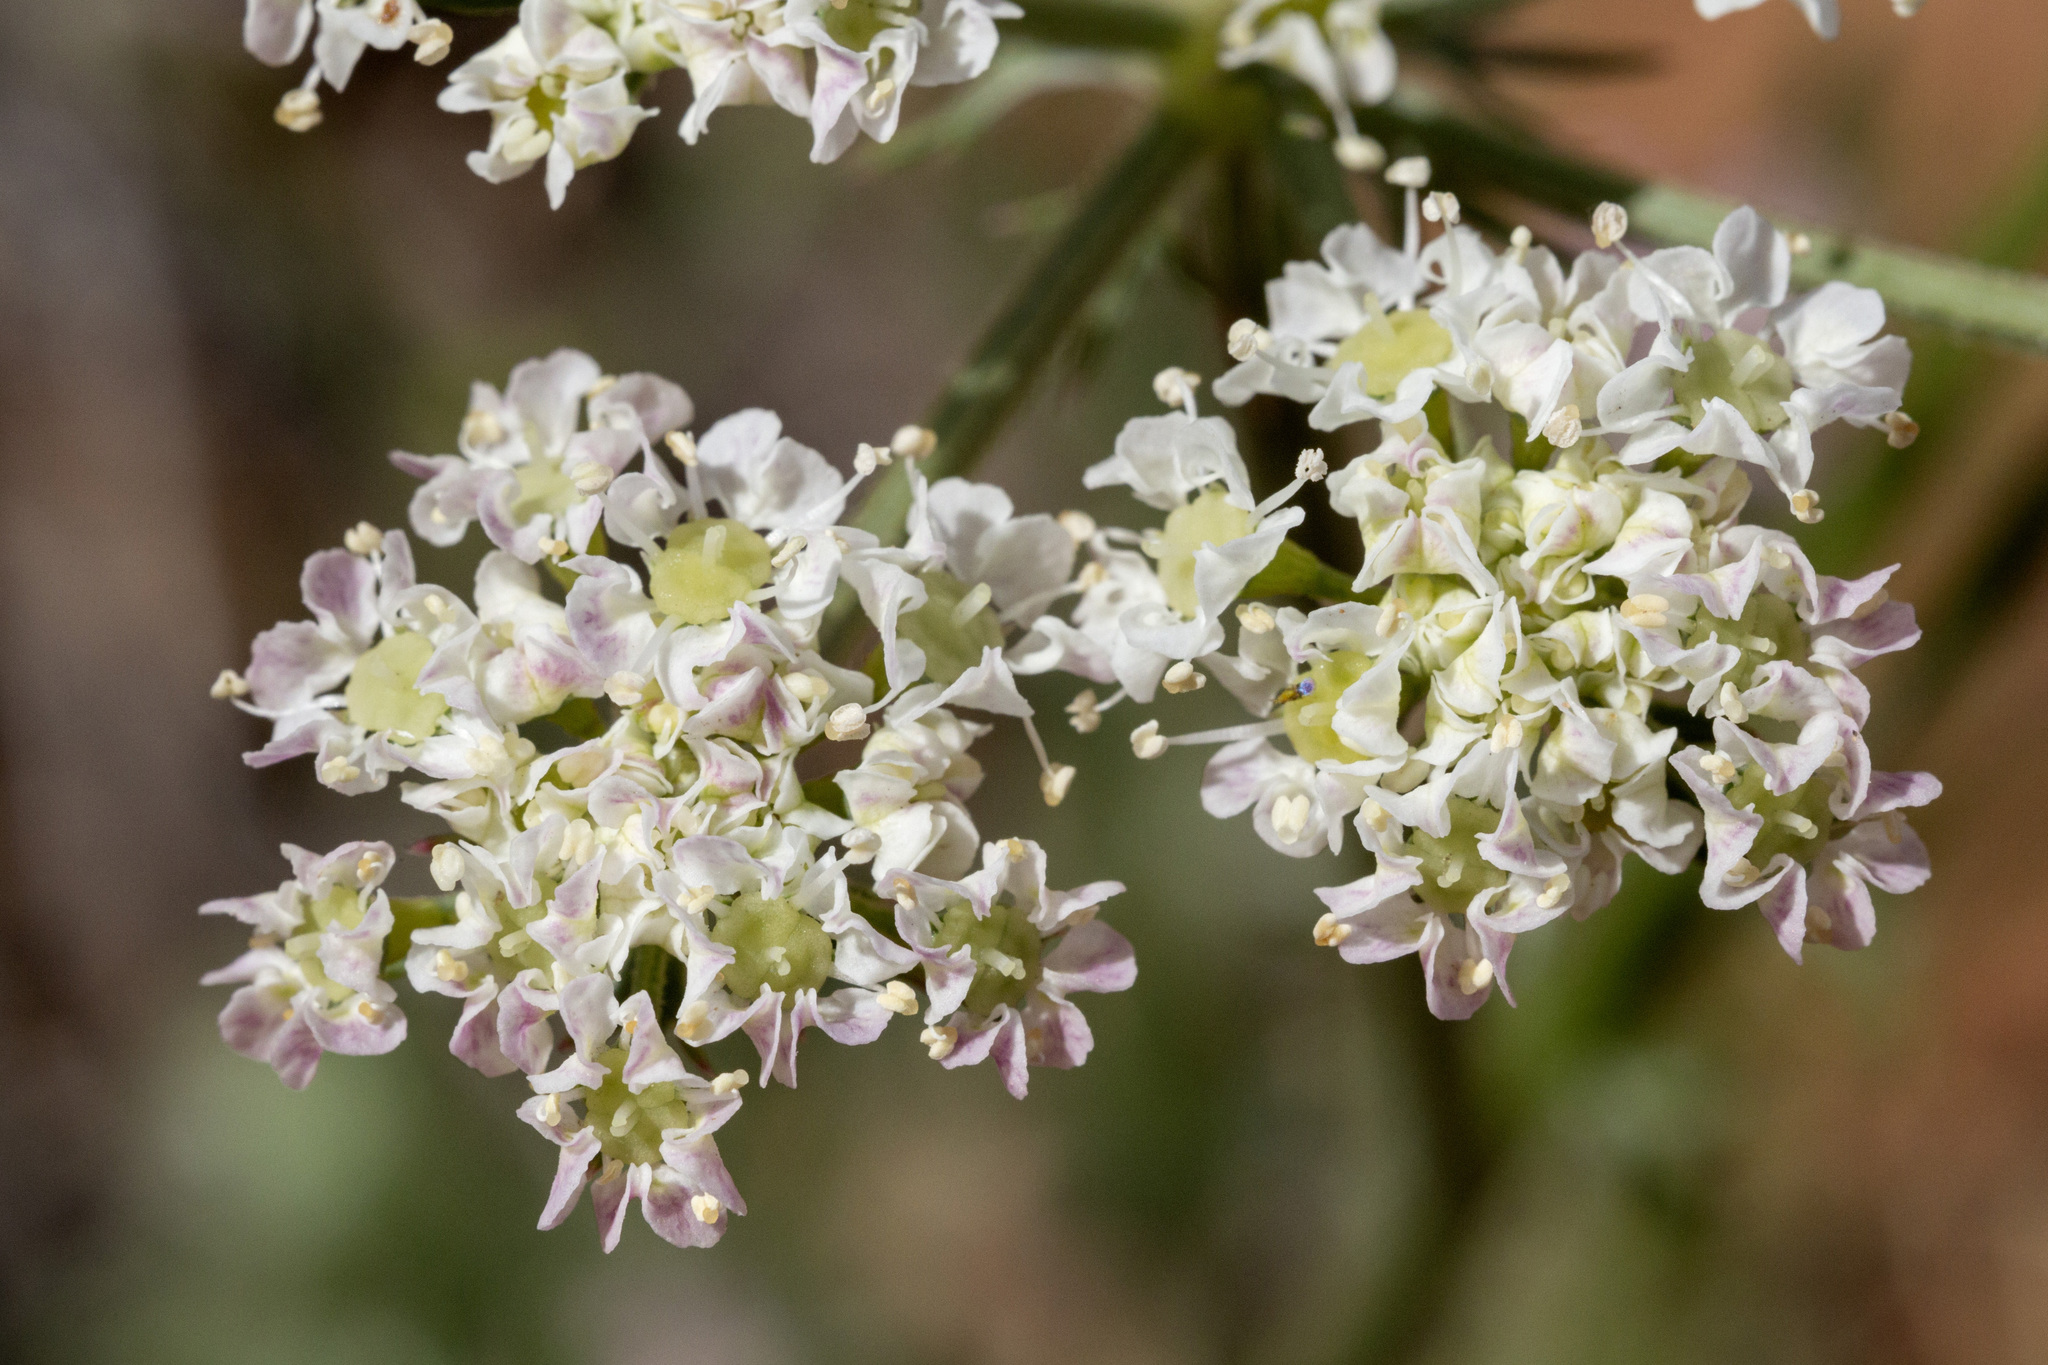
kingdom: Plantae
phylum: Tracheophyta
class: Magnoliopsida
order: Apiales
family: Apiaceae
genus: Eurytaenia
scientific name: Eurytaenia hinckleyi
